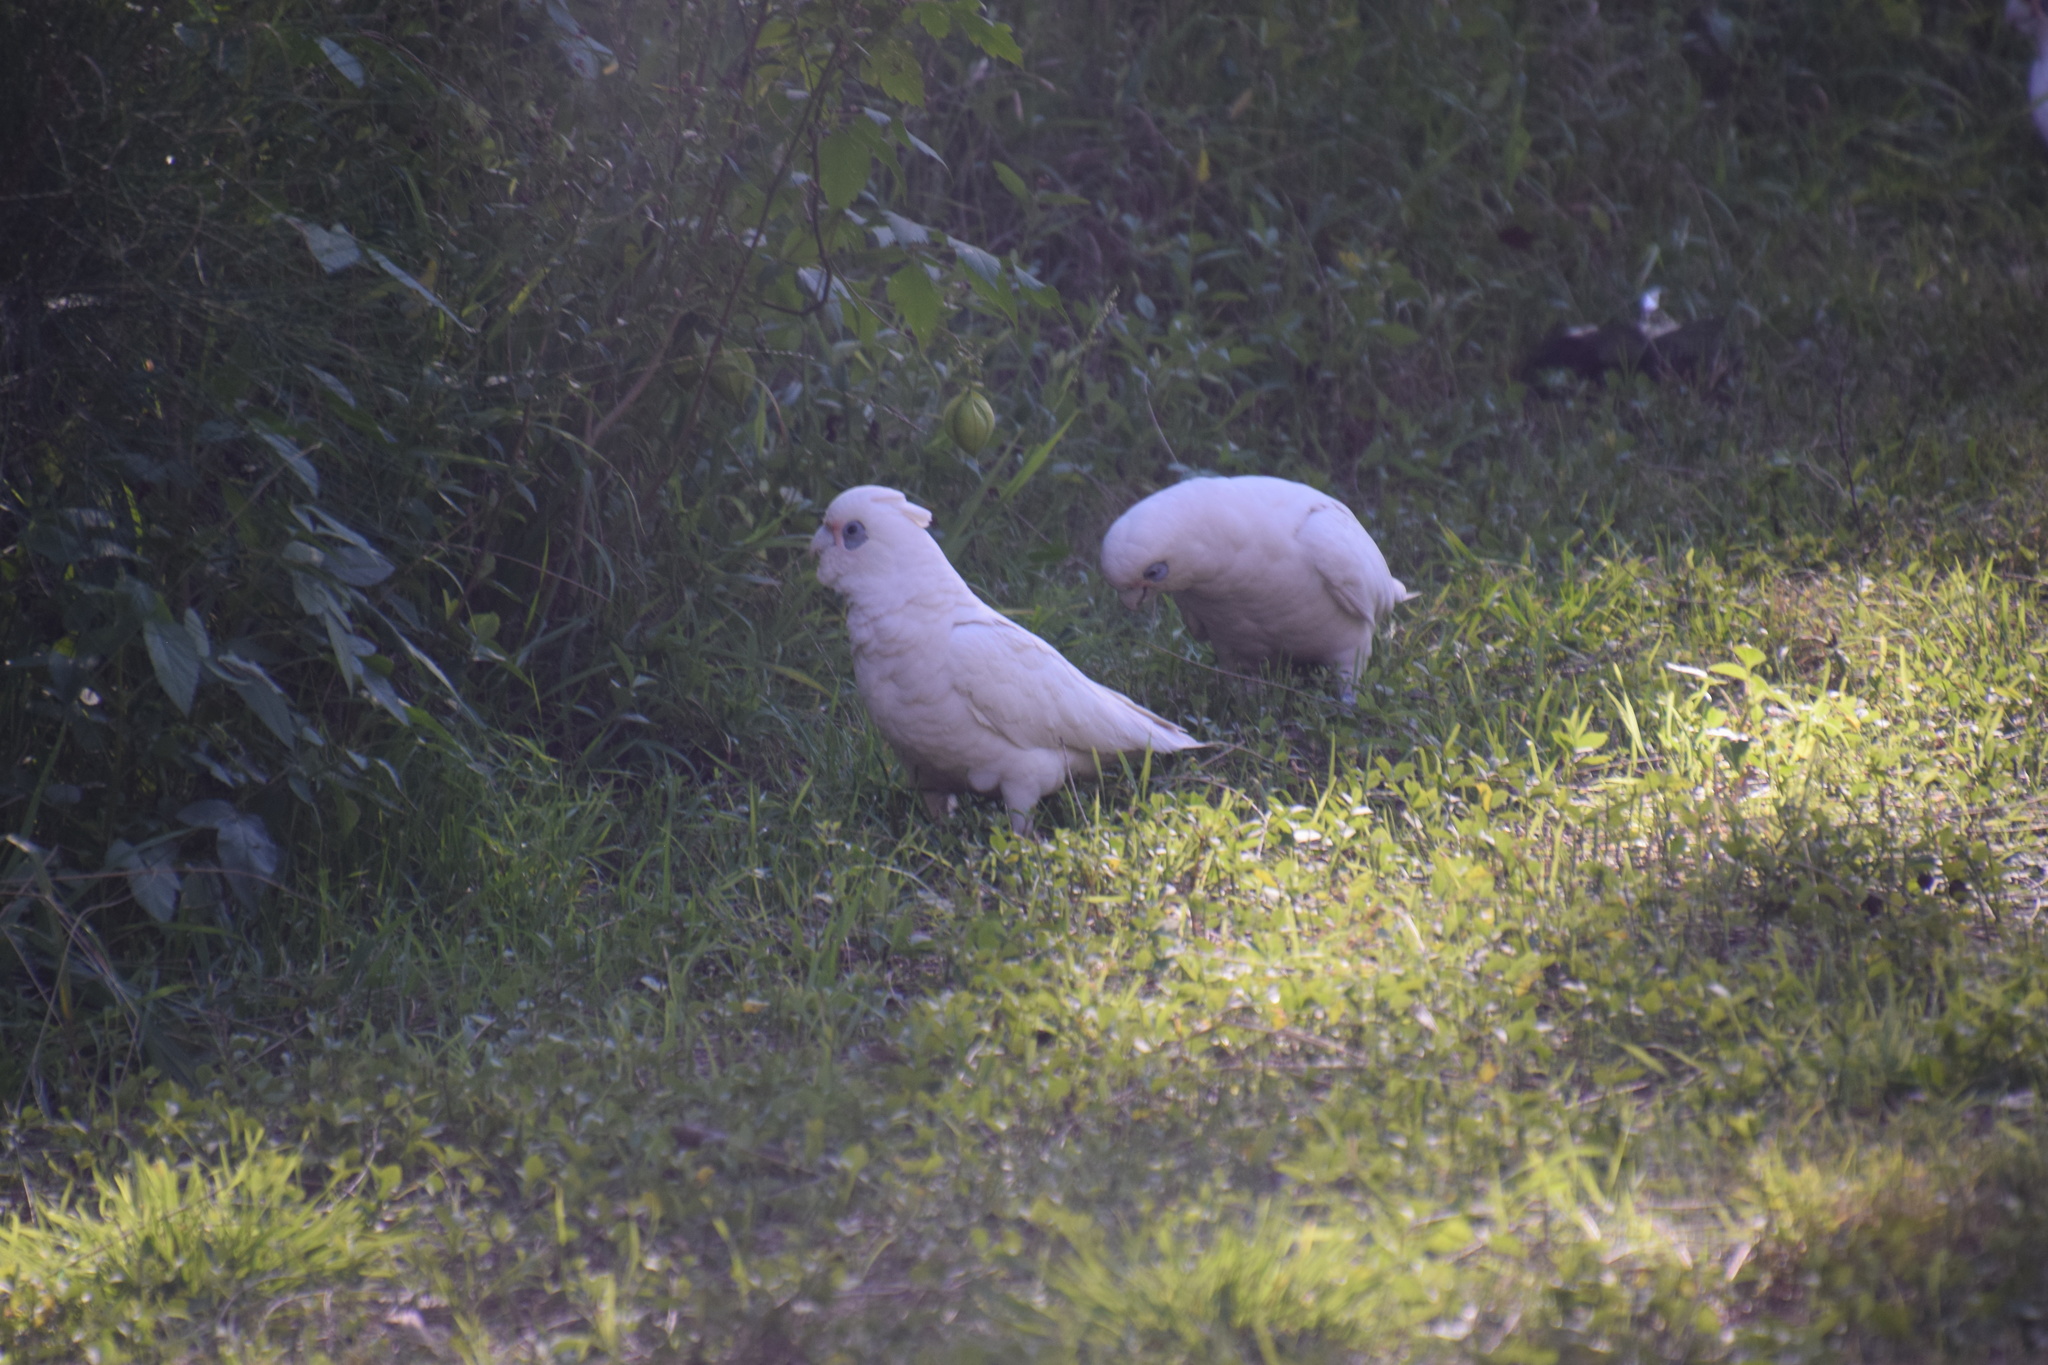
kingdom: Animalia
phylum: Chordata
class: Aves
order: Psittaciformes
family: Psittacidae
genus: Cacatua
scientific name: Cacatua sanguinea
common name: Little corella
